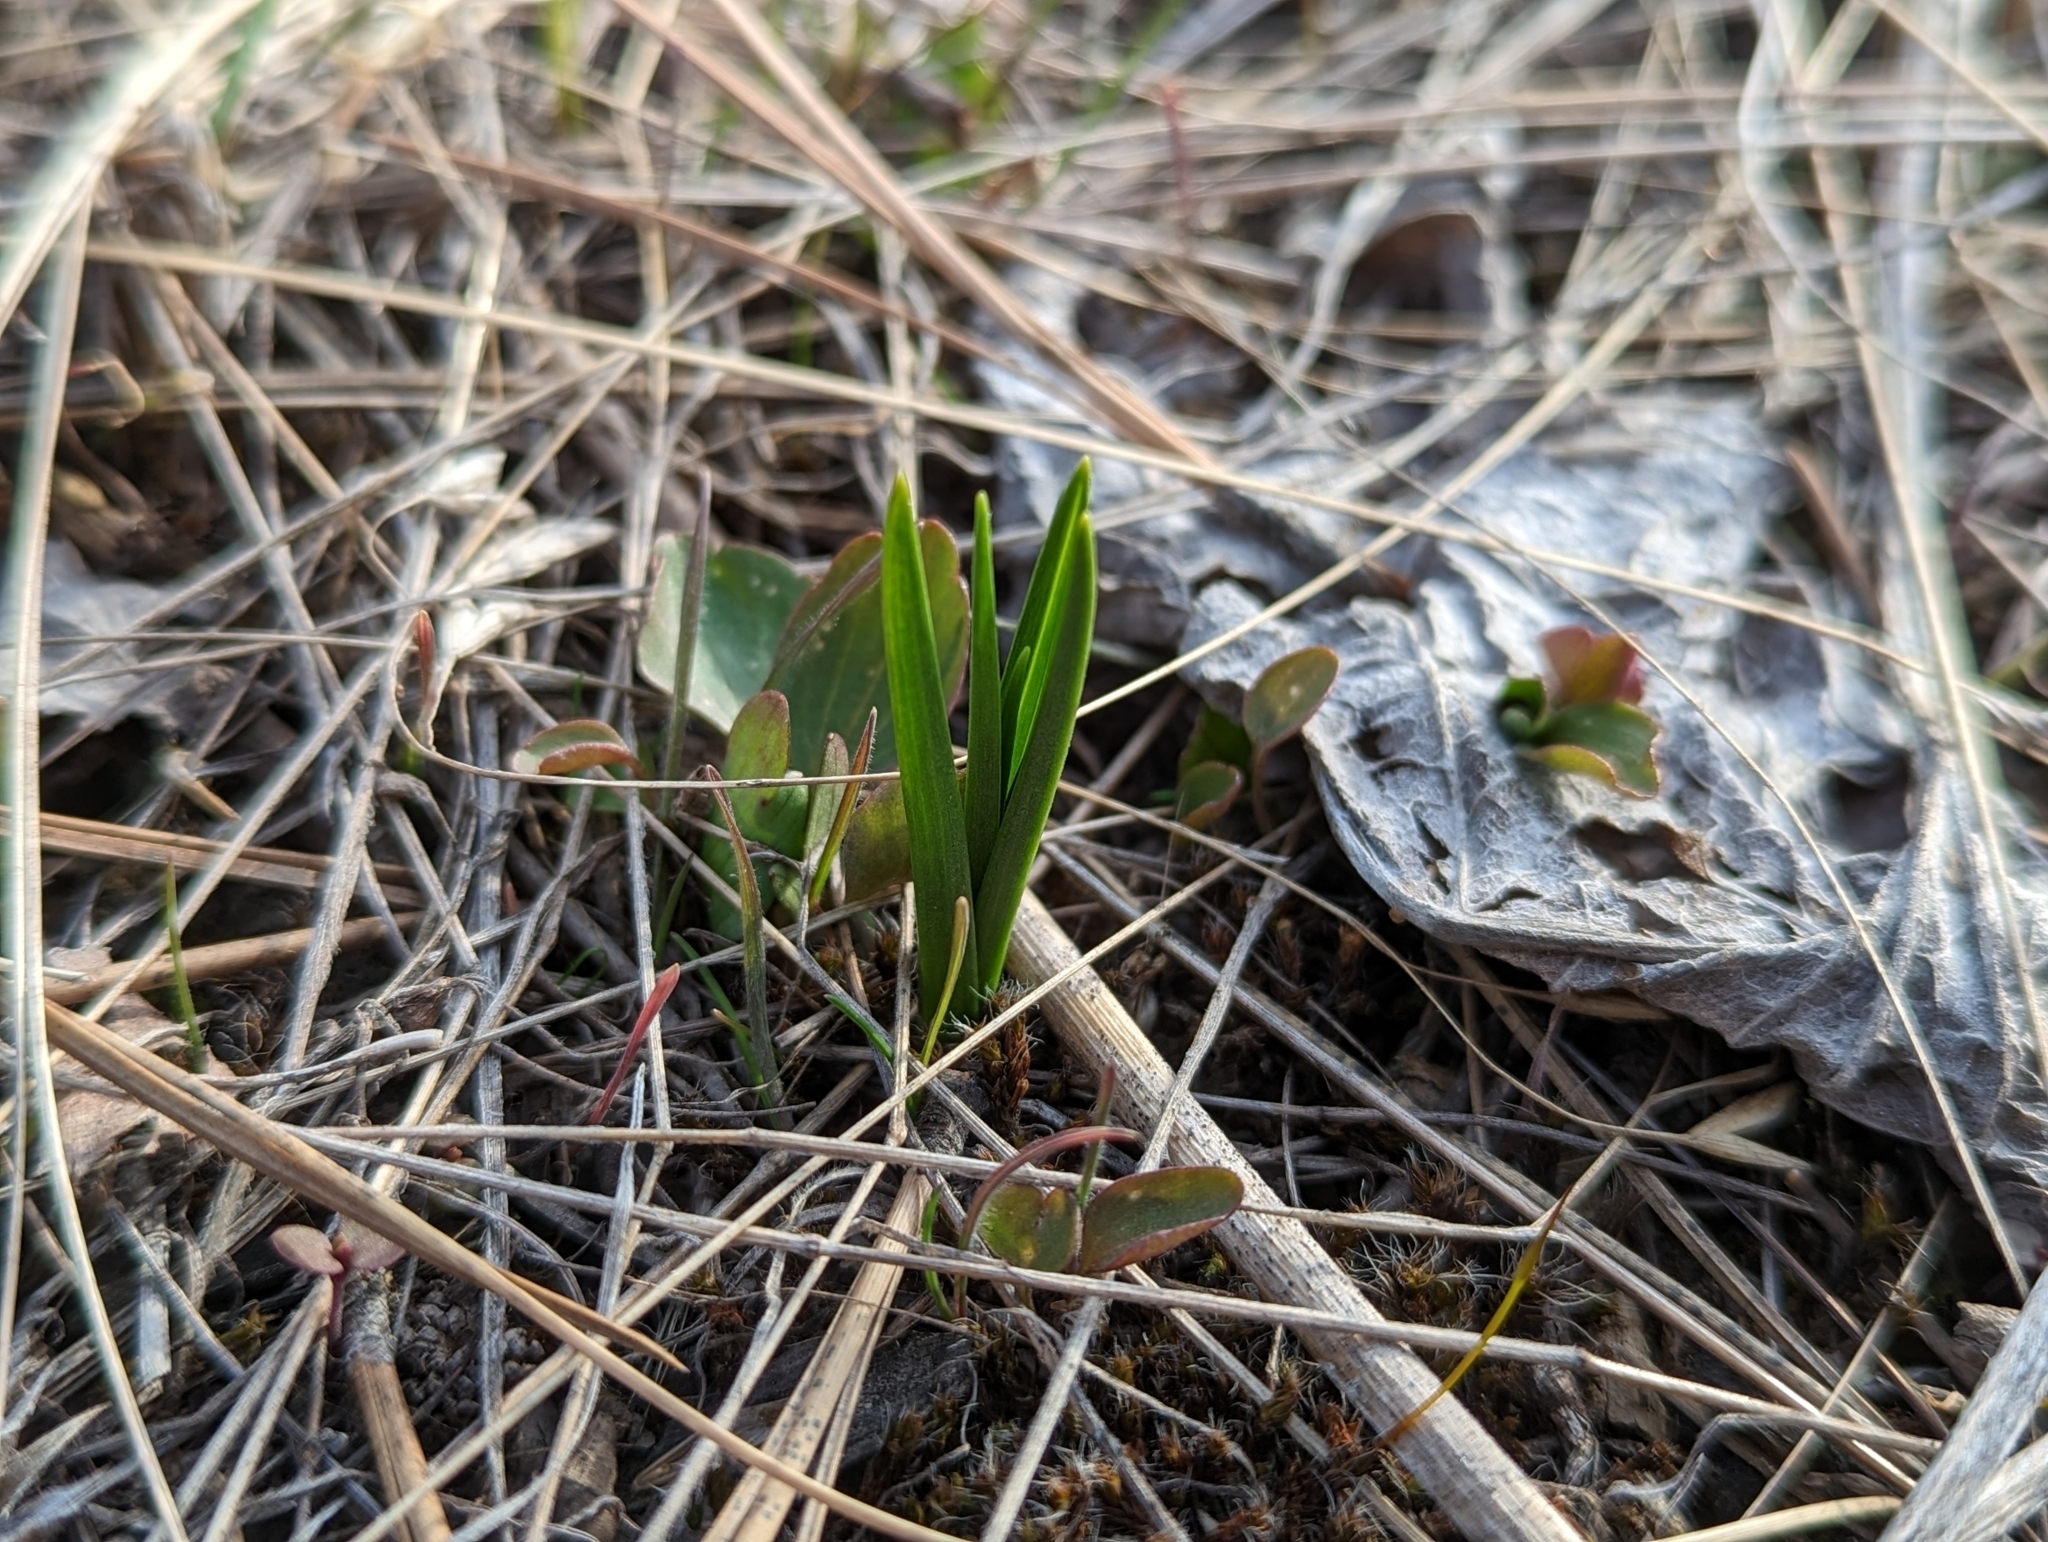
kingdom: Plantae
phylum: Tracheophyta
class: Liliopsida
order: Liliales
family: Liliaceae
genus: Fritillaria
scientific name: Fritillaria pudica
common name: Yellow fritillary
